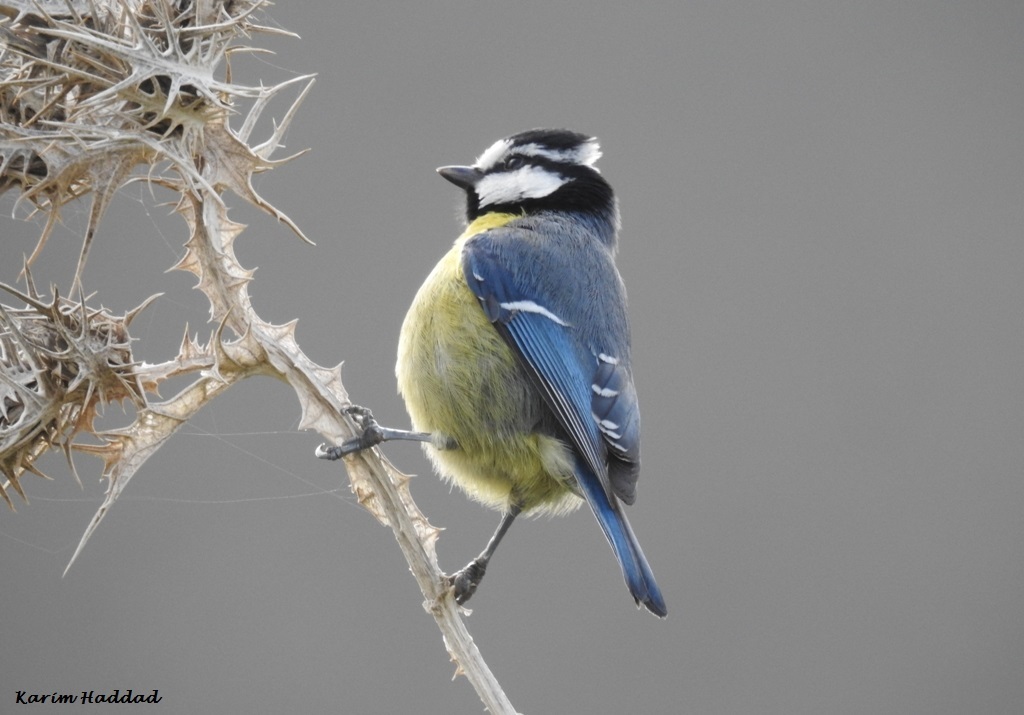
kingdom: Animalia
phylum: Chordata
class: Aves
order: Passeriformes
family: Paridae
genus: Cyanistes
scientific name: Cyanistes teneriffae
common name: African blue tit
